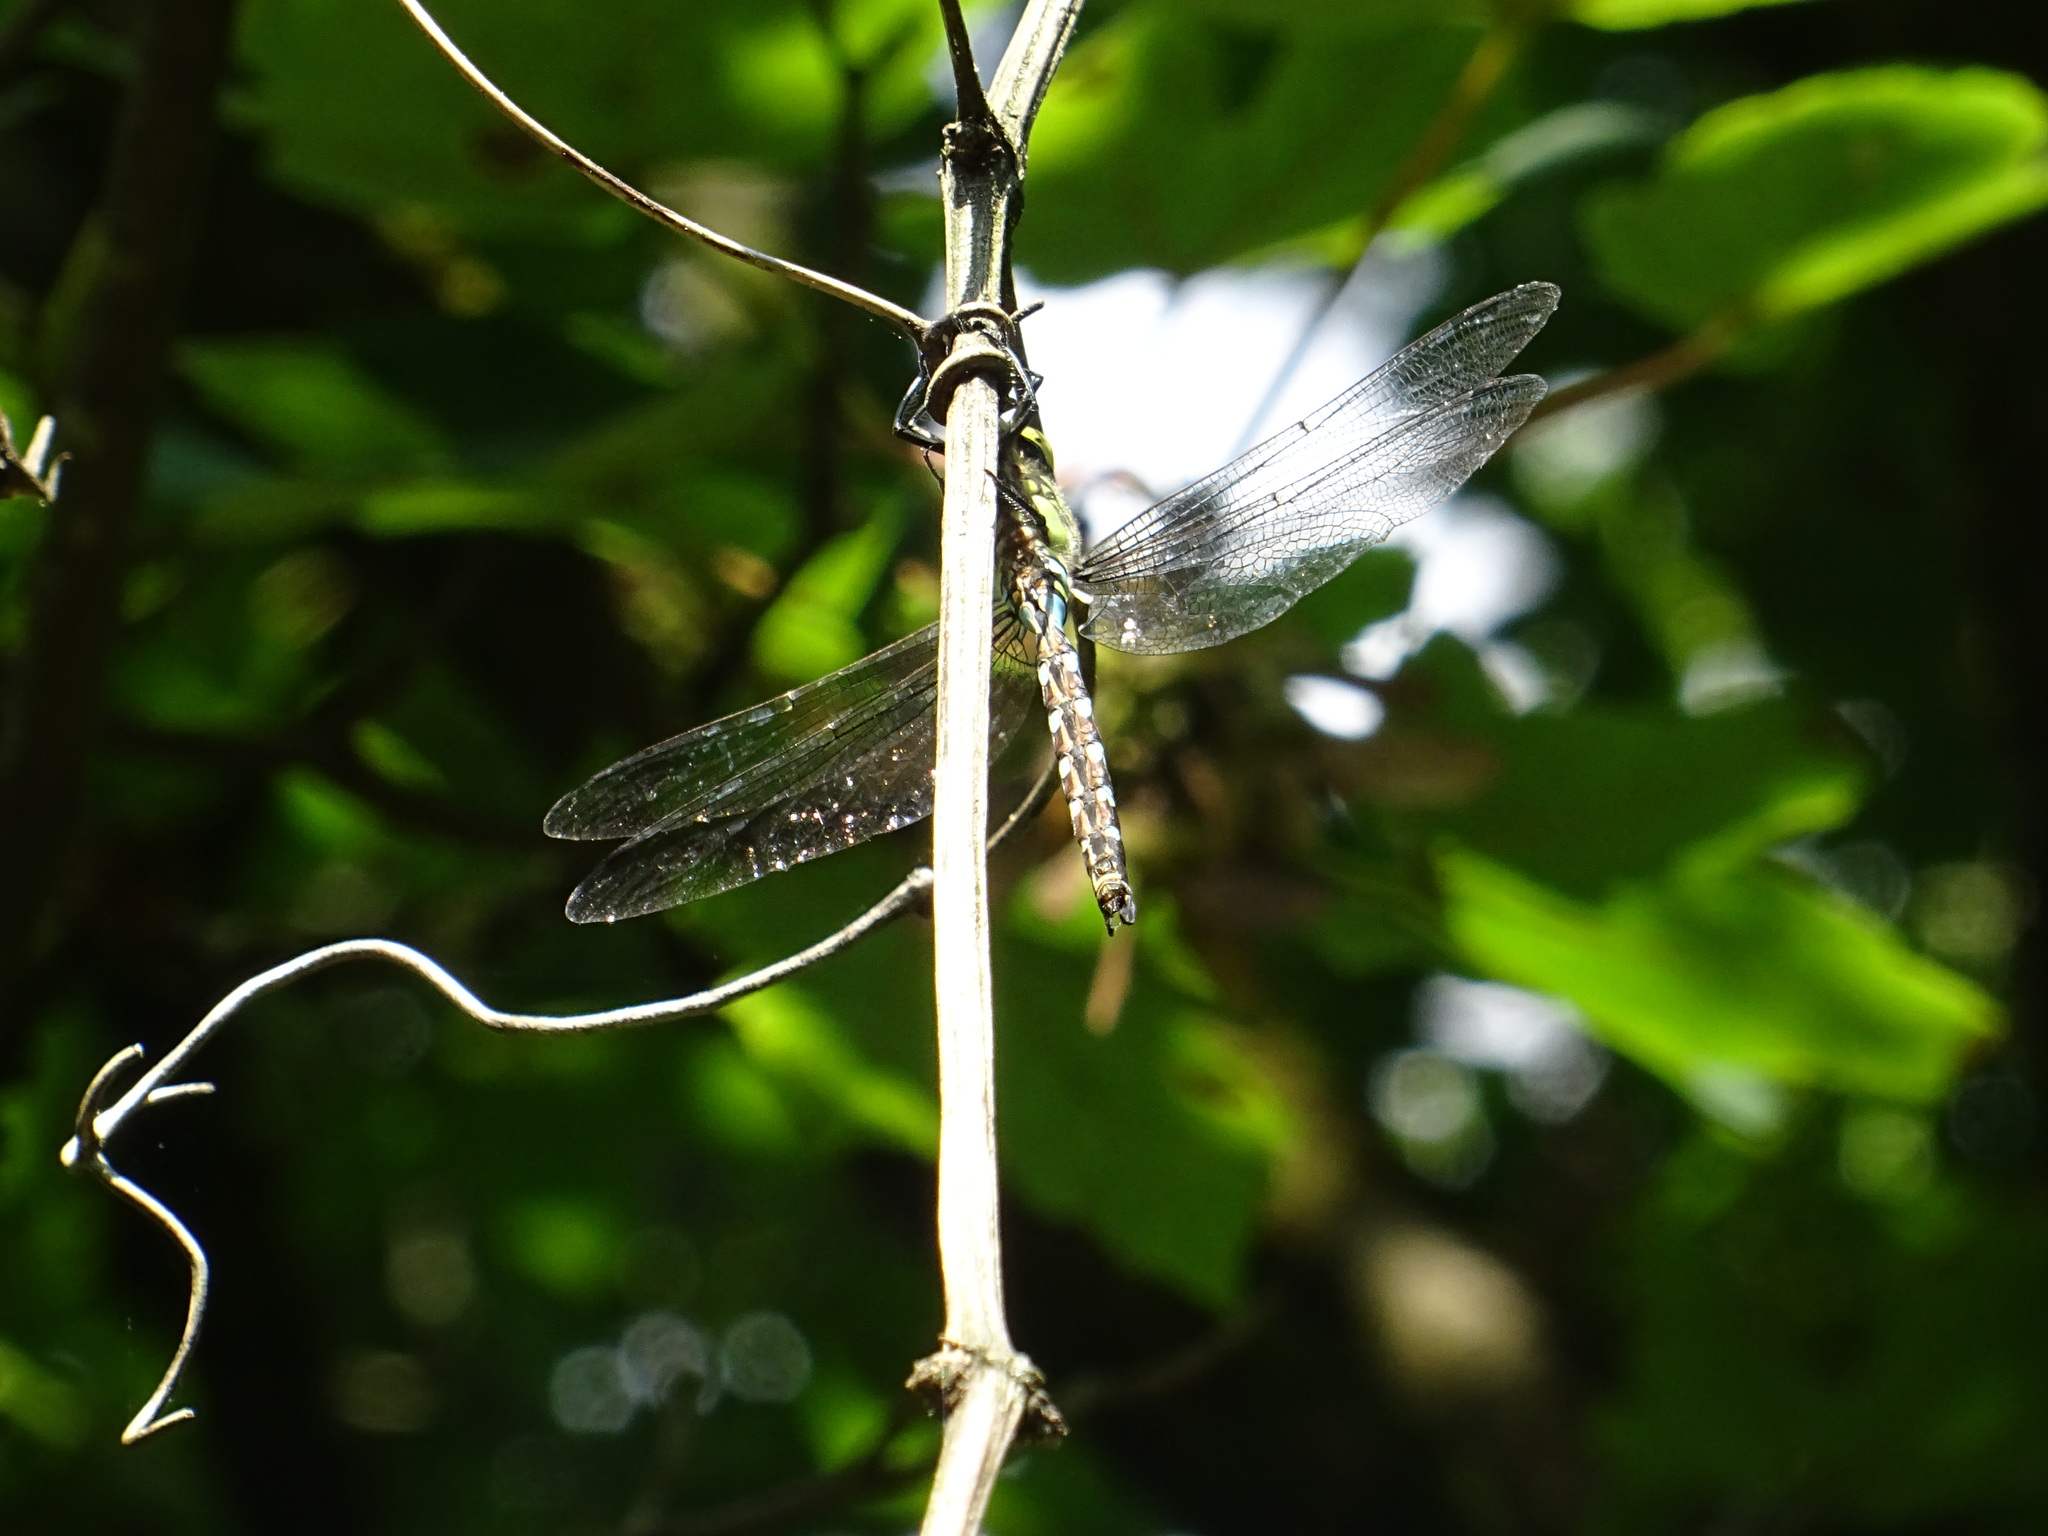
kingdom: Animalia
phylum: Arthropoda
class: Insecta
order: Odonata
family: Aeshnidae
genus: Aeshna
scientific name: Aeshna cyanea
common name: Southern hawker
